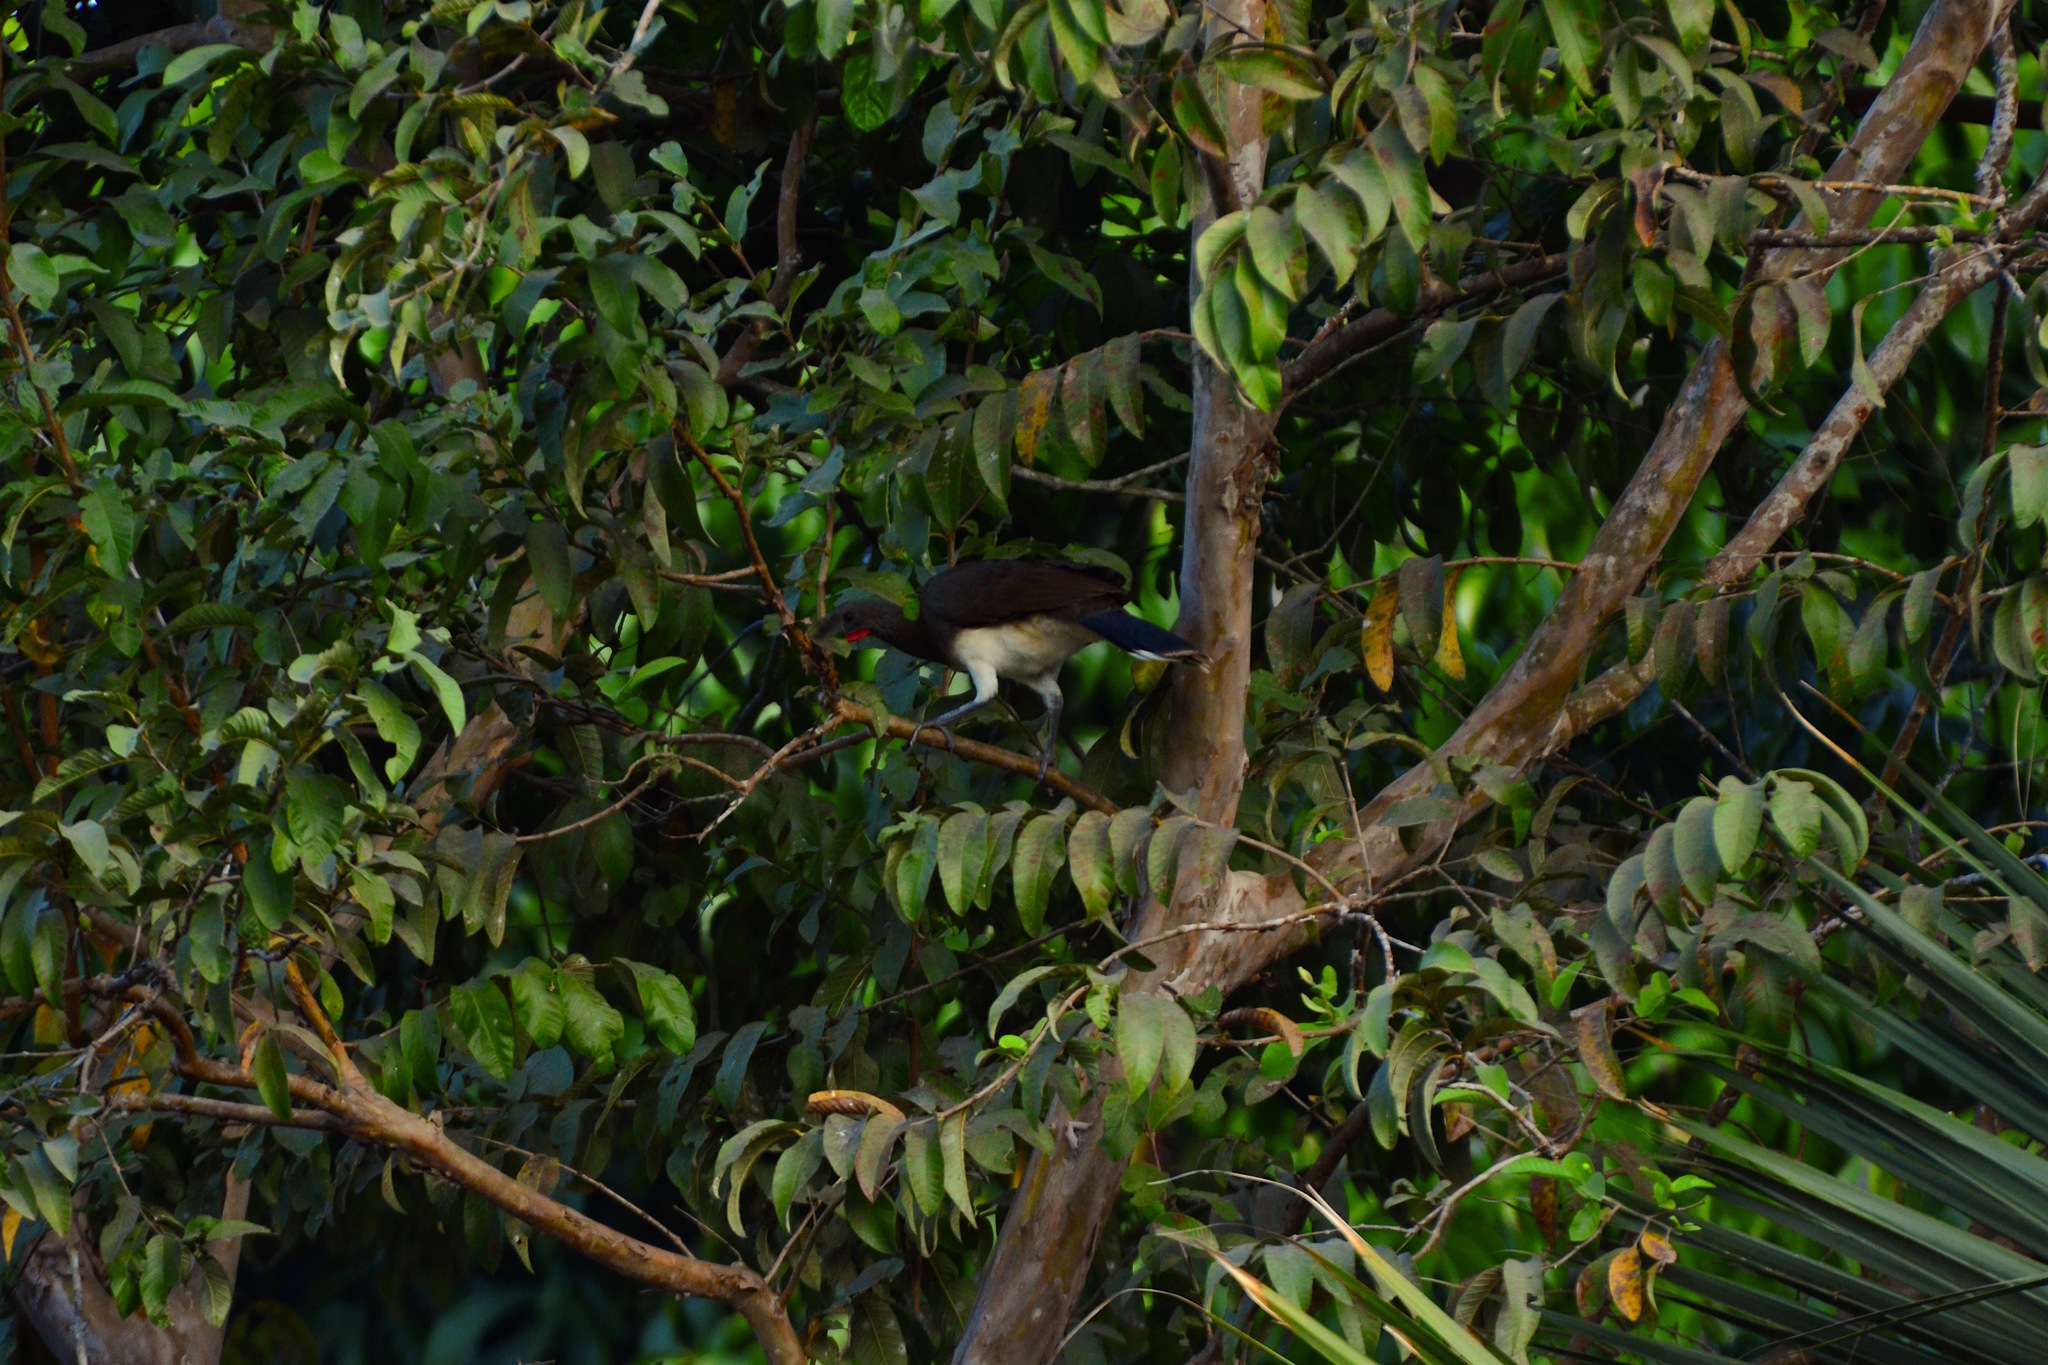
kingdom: Animalia
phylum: Chordata
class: Aves
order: Galliformes
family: Cracidae
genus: Ortalis
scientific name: Ortalis leucogastra
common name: White-bellied chachalaca
